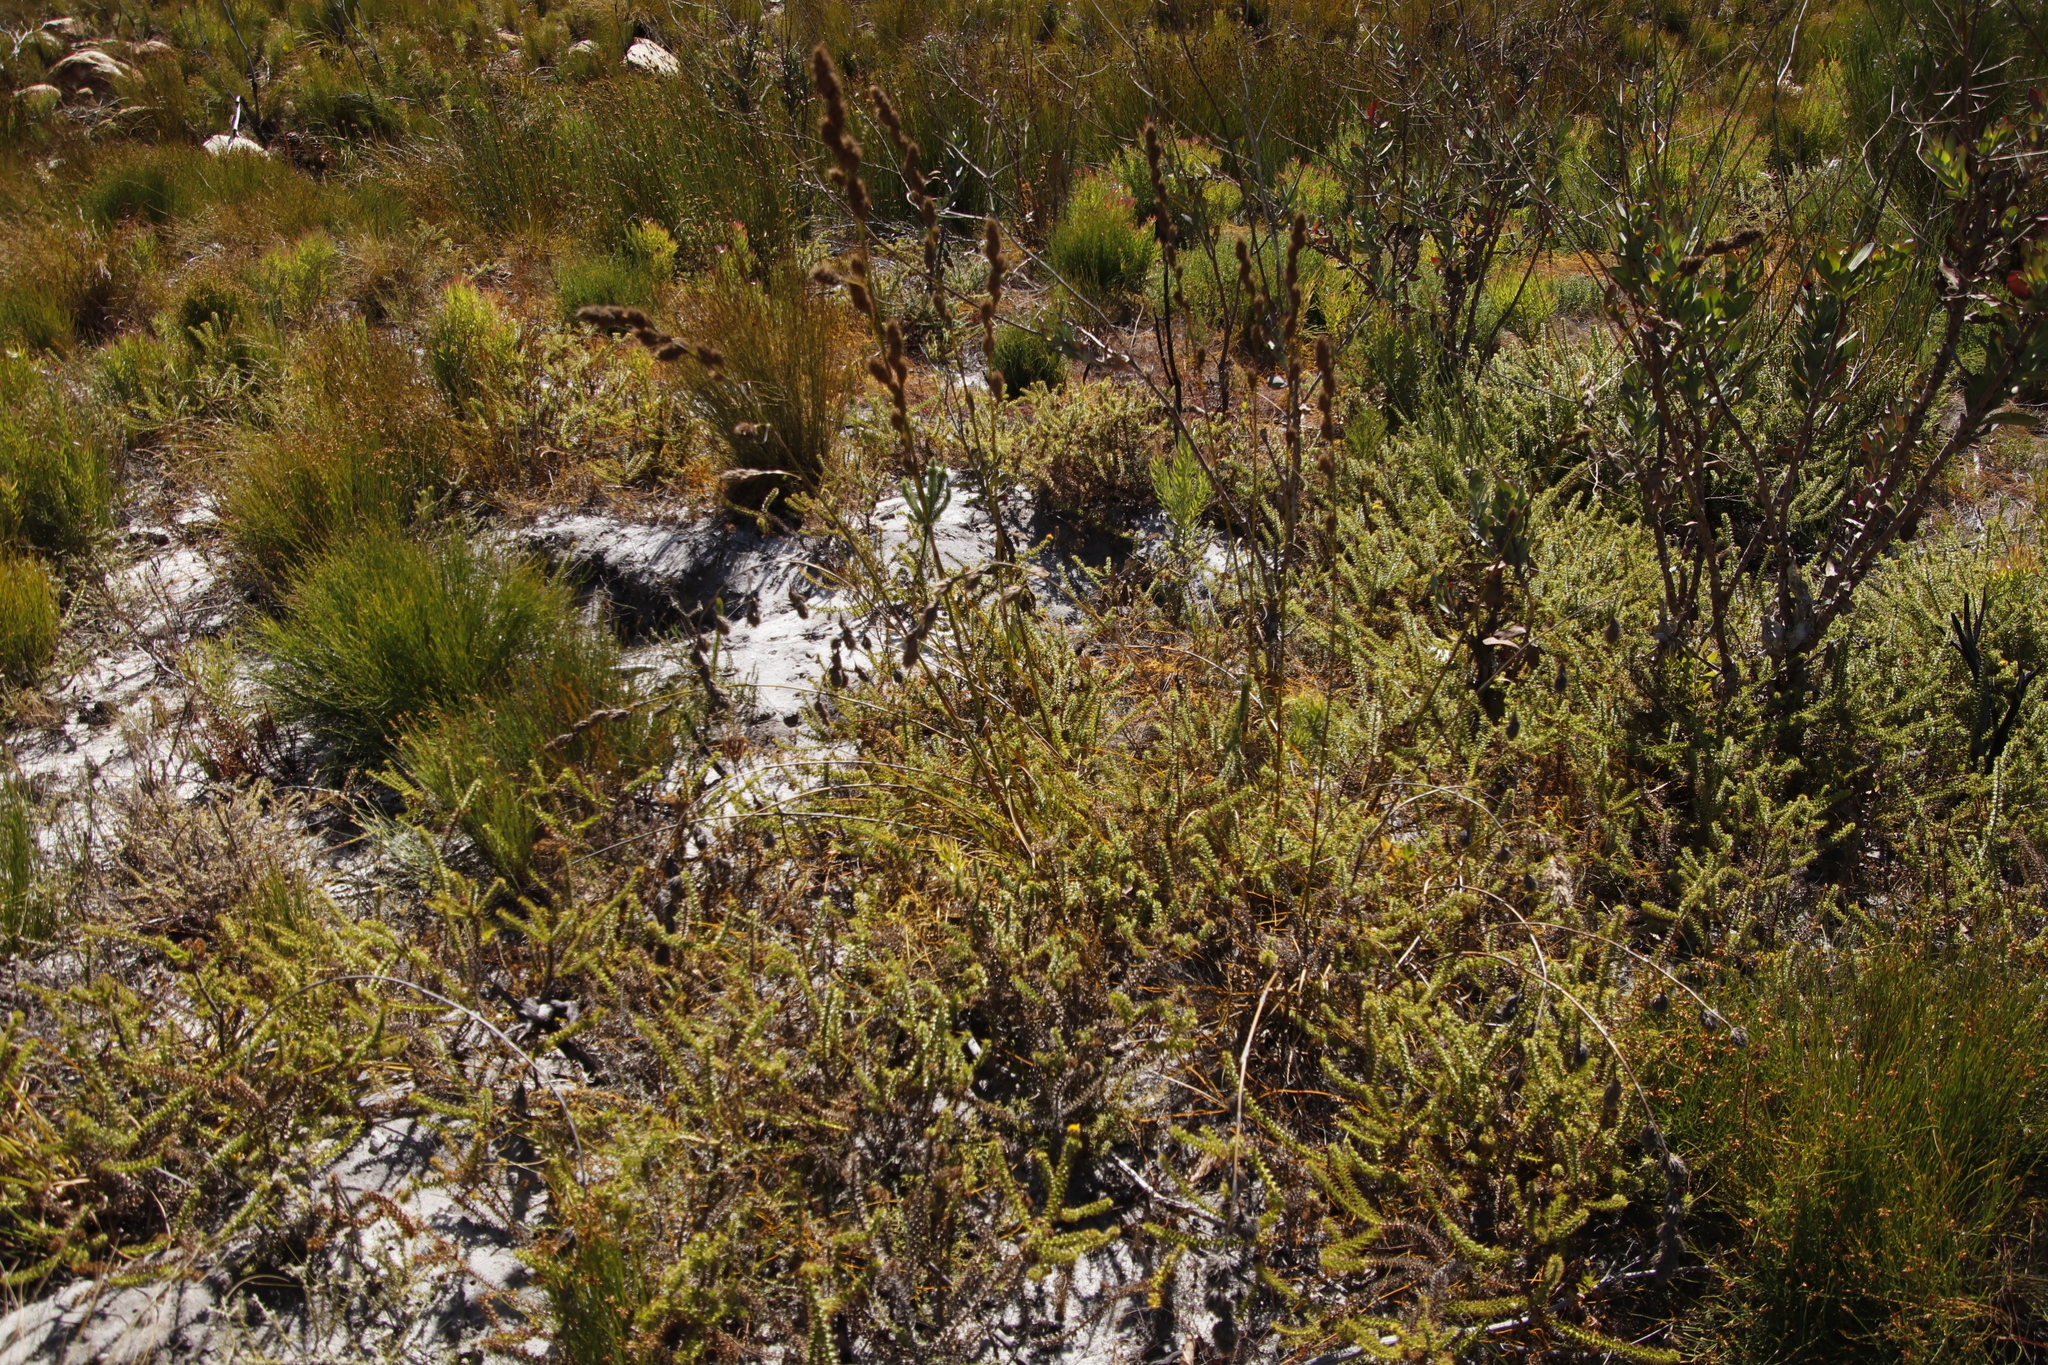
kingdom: Plantae
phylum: Tracheophyta
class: Liliopsida
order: Poales
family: Cyperaceae
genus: Tetraria
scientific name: Tetraria bromoides
